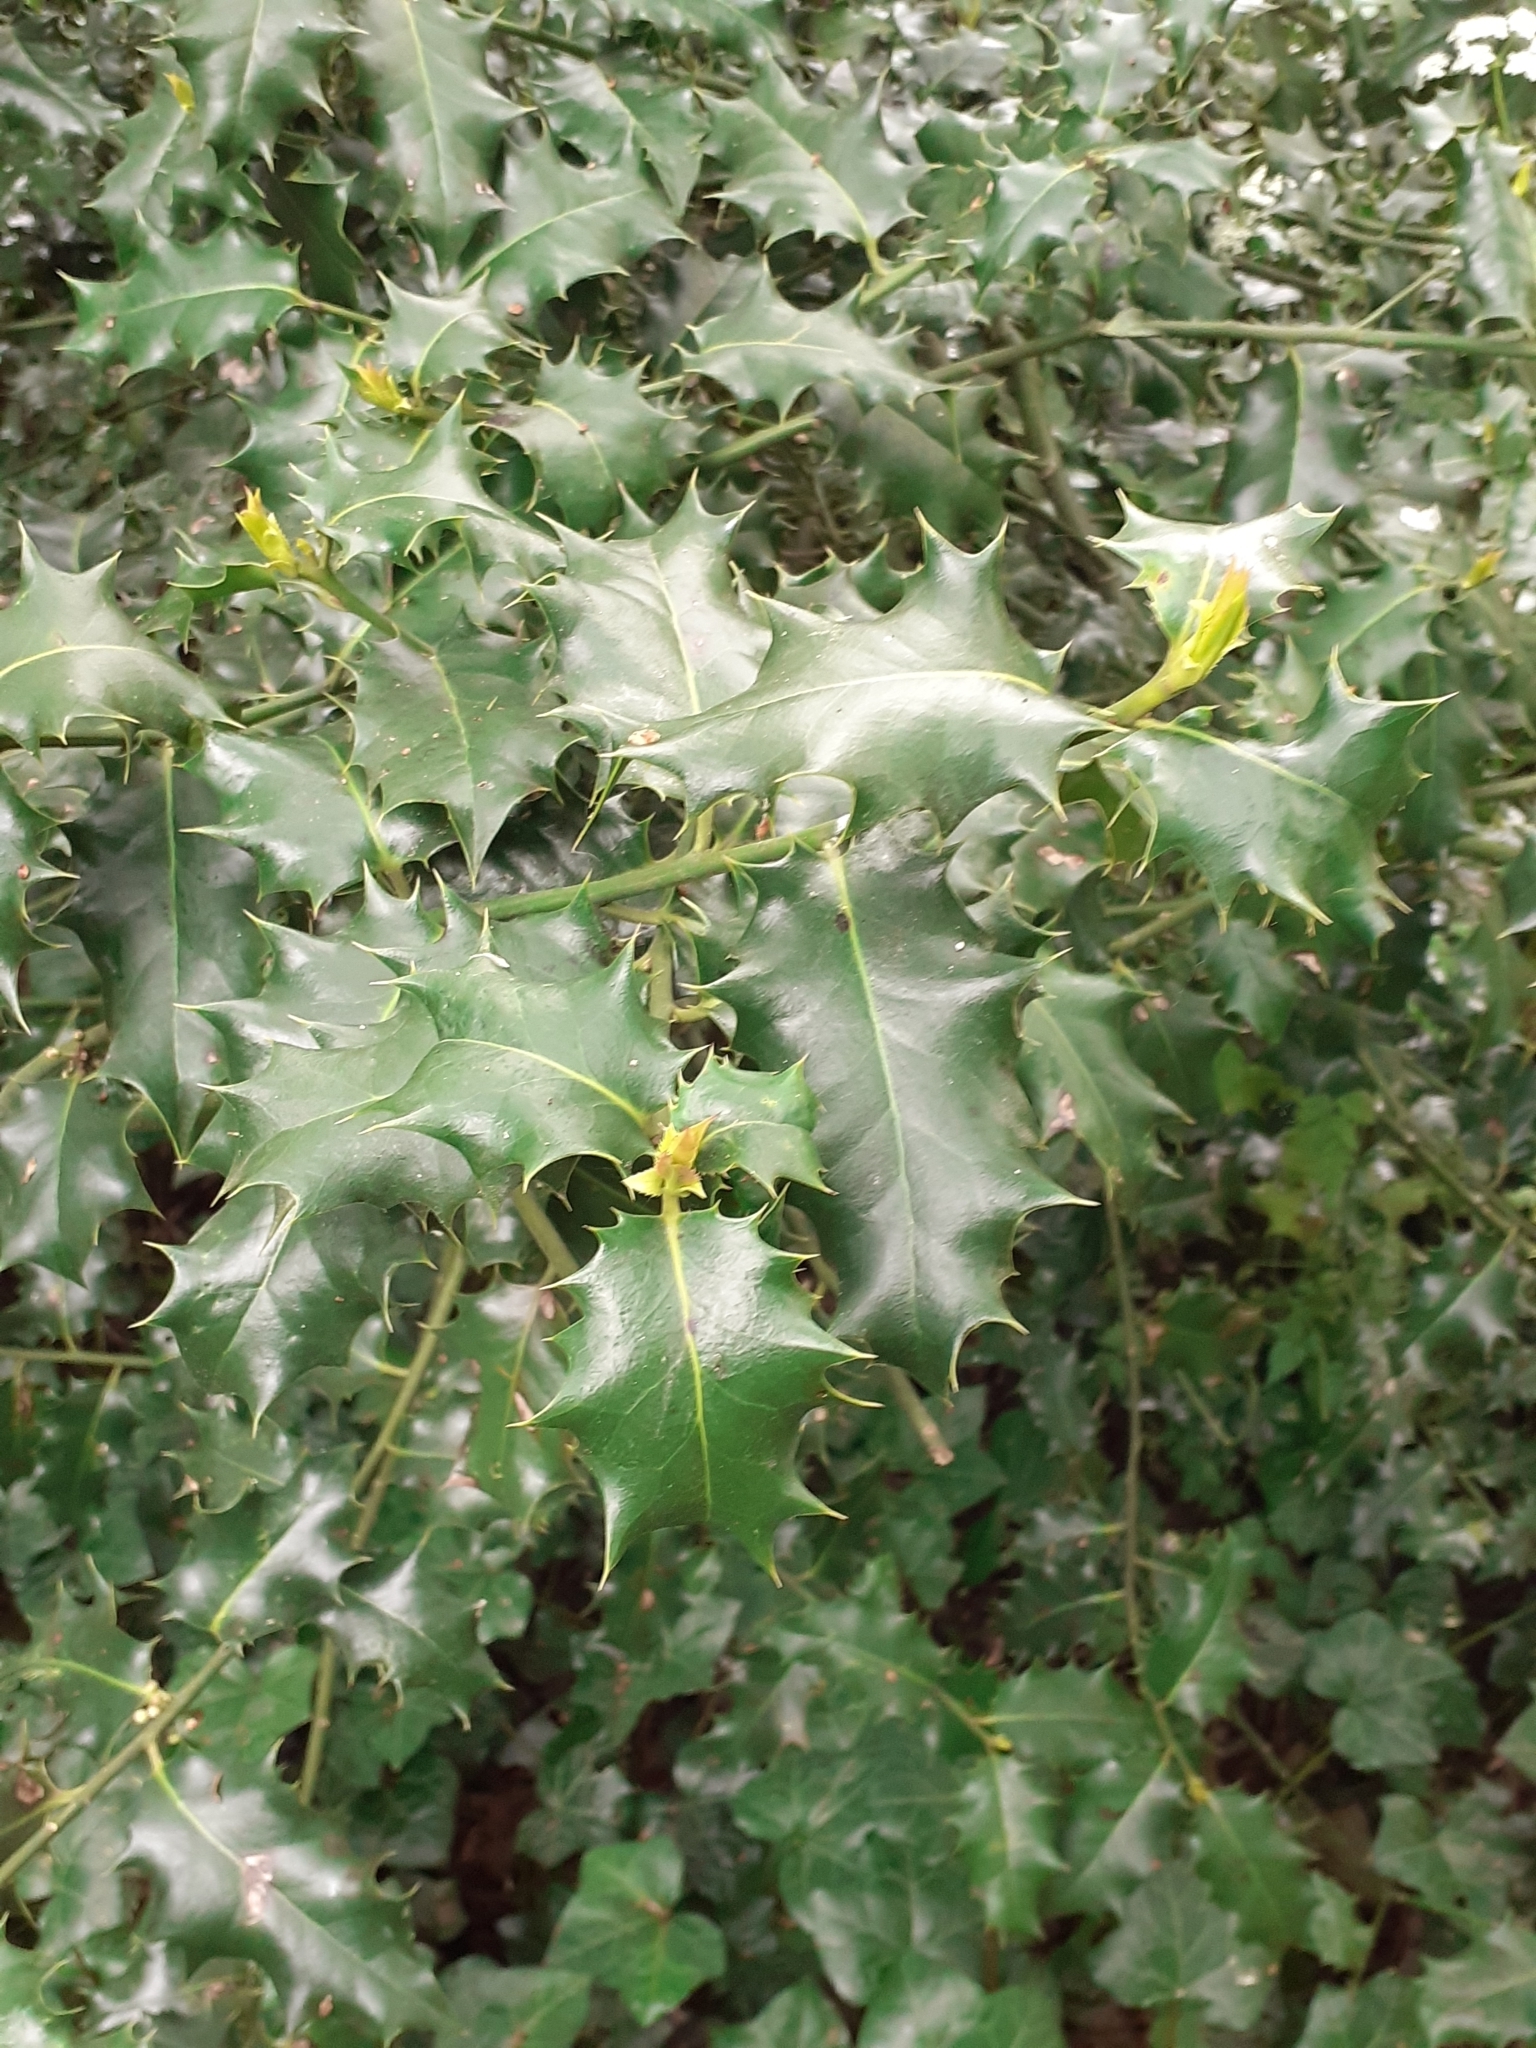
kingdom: Plantae
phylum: Tracheophyta
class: Magnoliopsida
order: Aquifoliales
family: Aquifoliaceae
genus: Ilex
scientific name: Ilex aquifolium
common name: English holly
